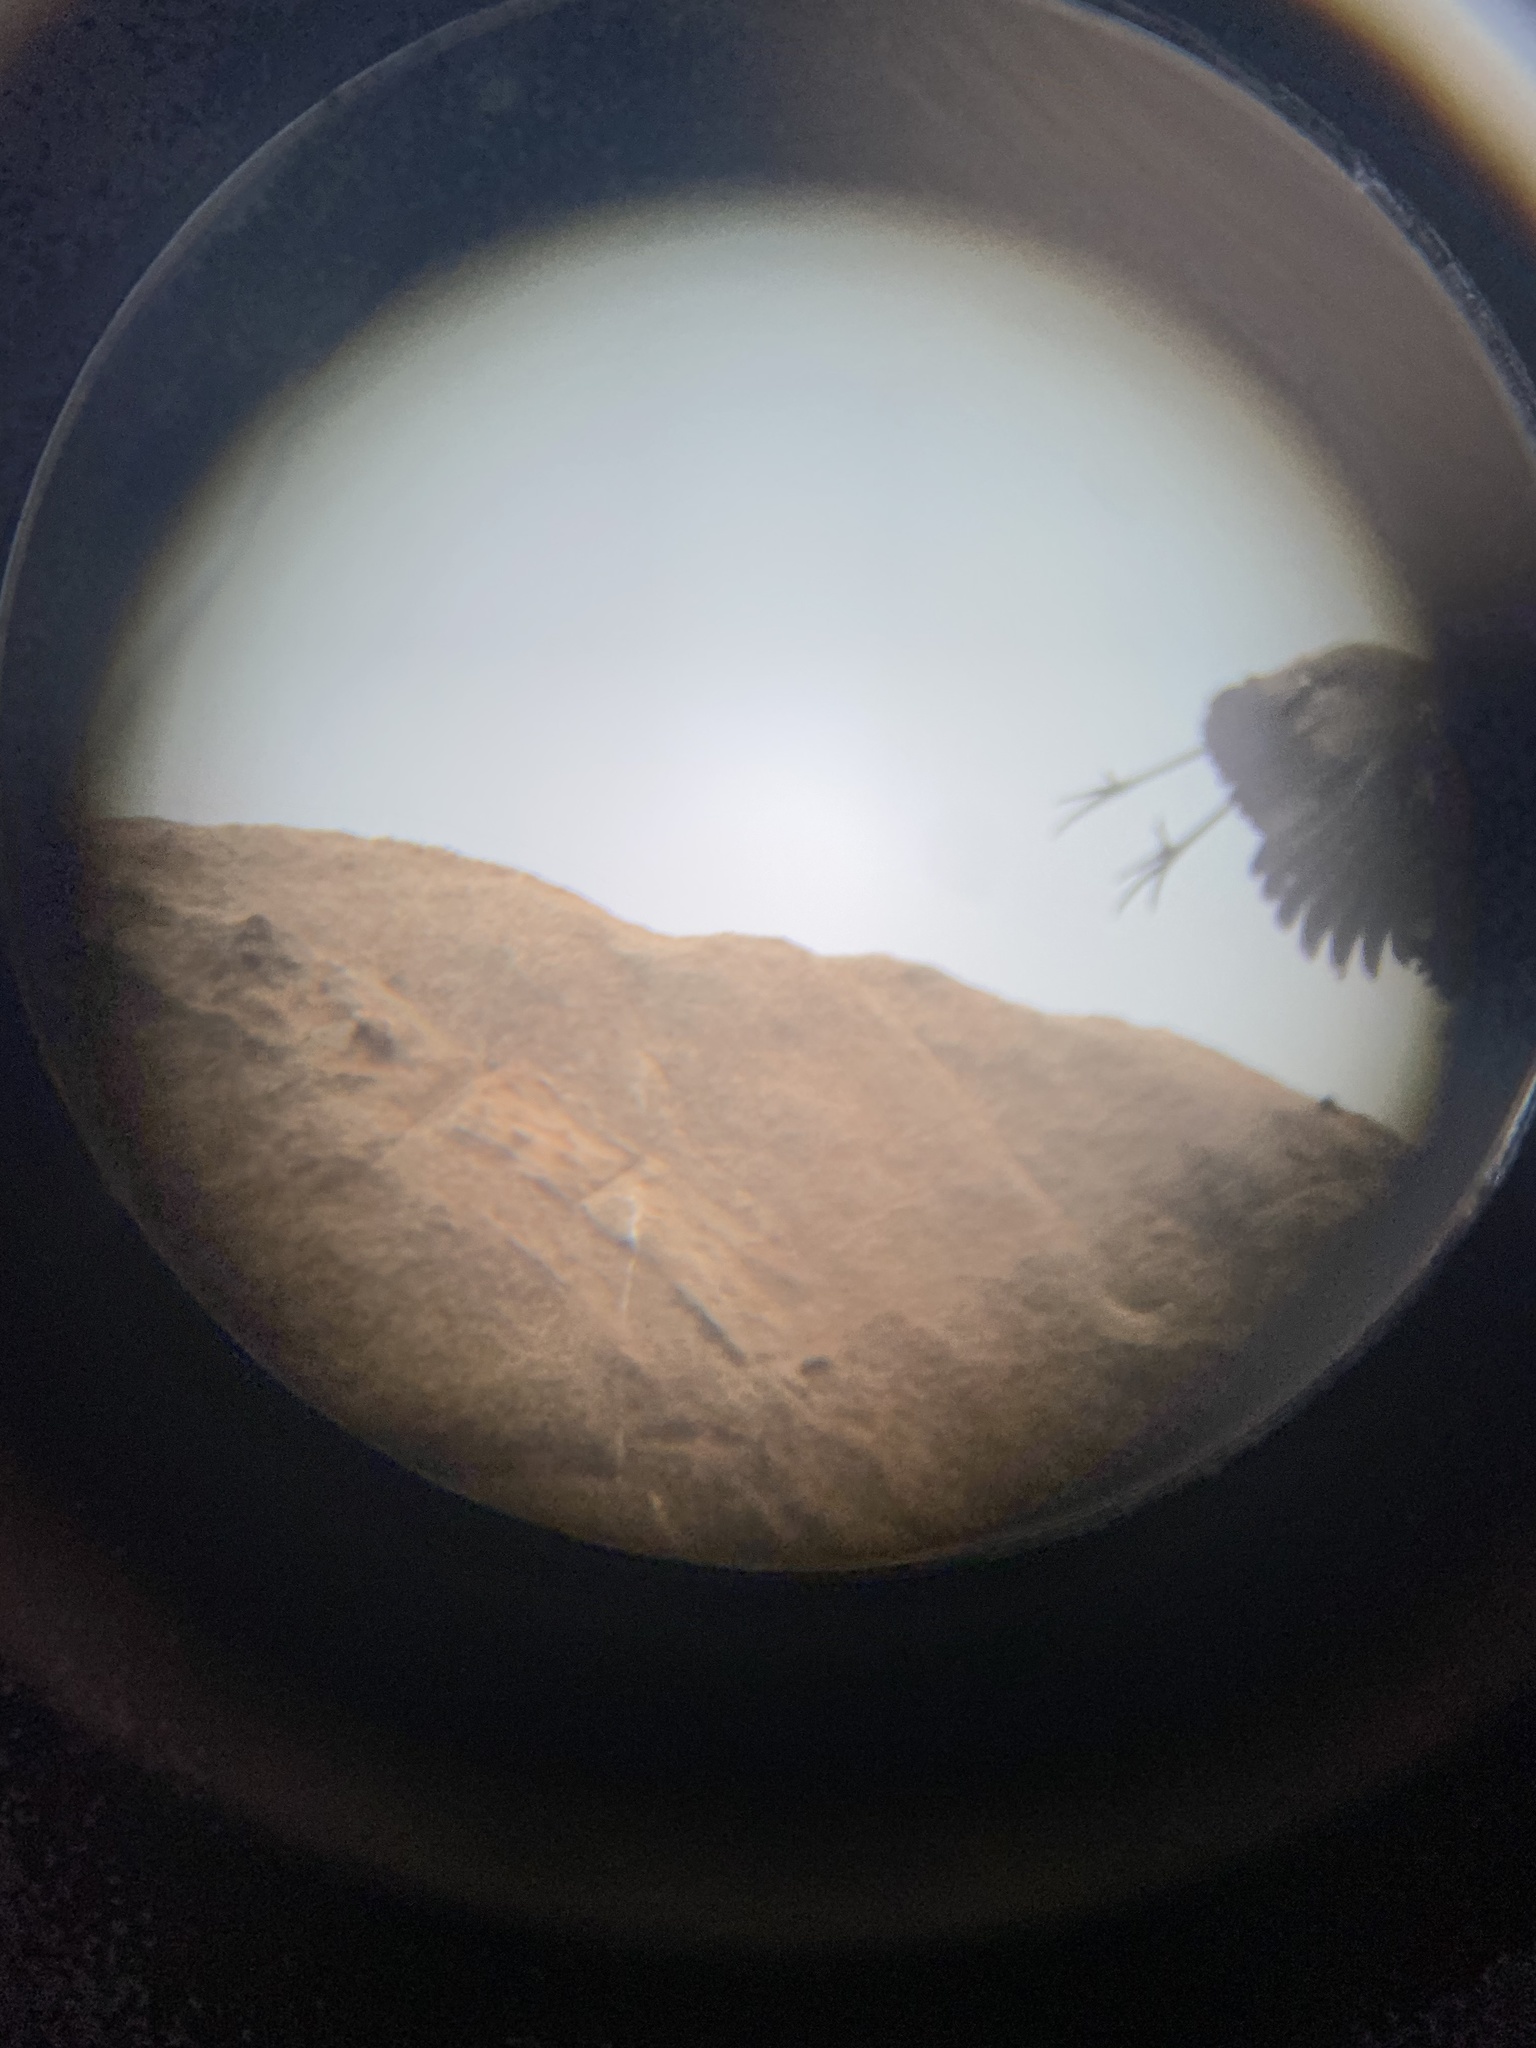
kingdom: Animalia
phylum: Chordata
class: Aves
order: Pelecaniformes
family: Ardeidae
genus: Ardea
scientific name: Ardea herodias
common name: Great blue heron
